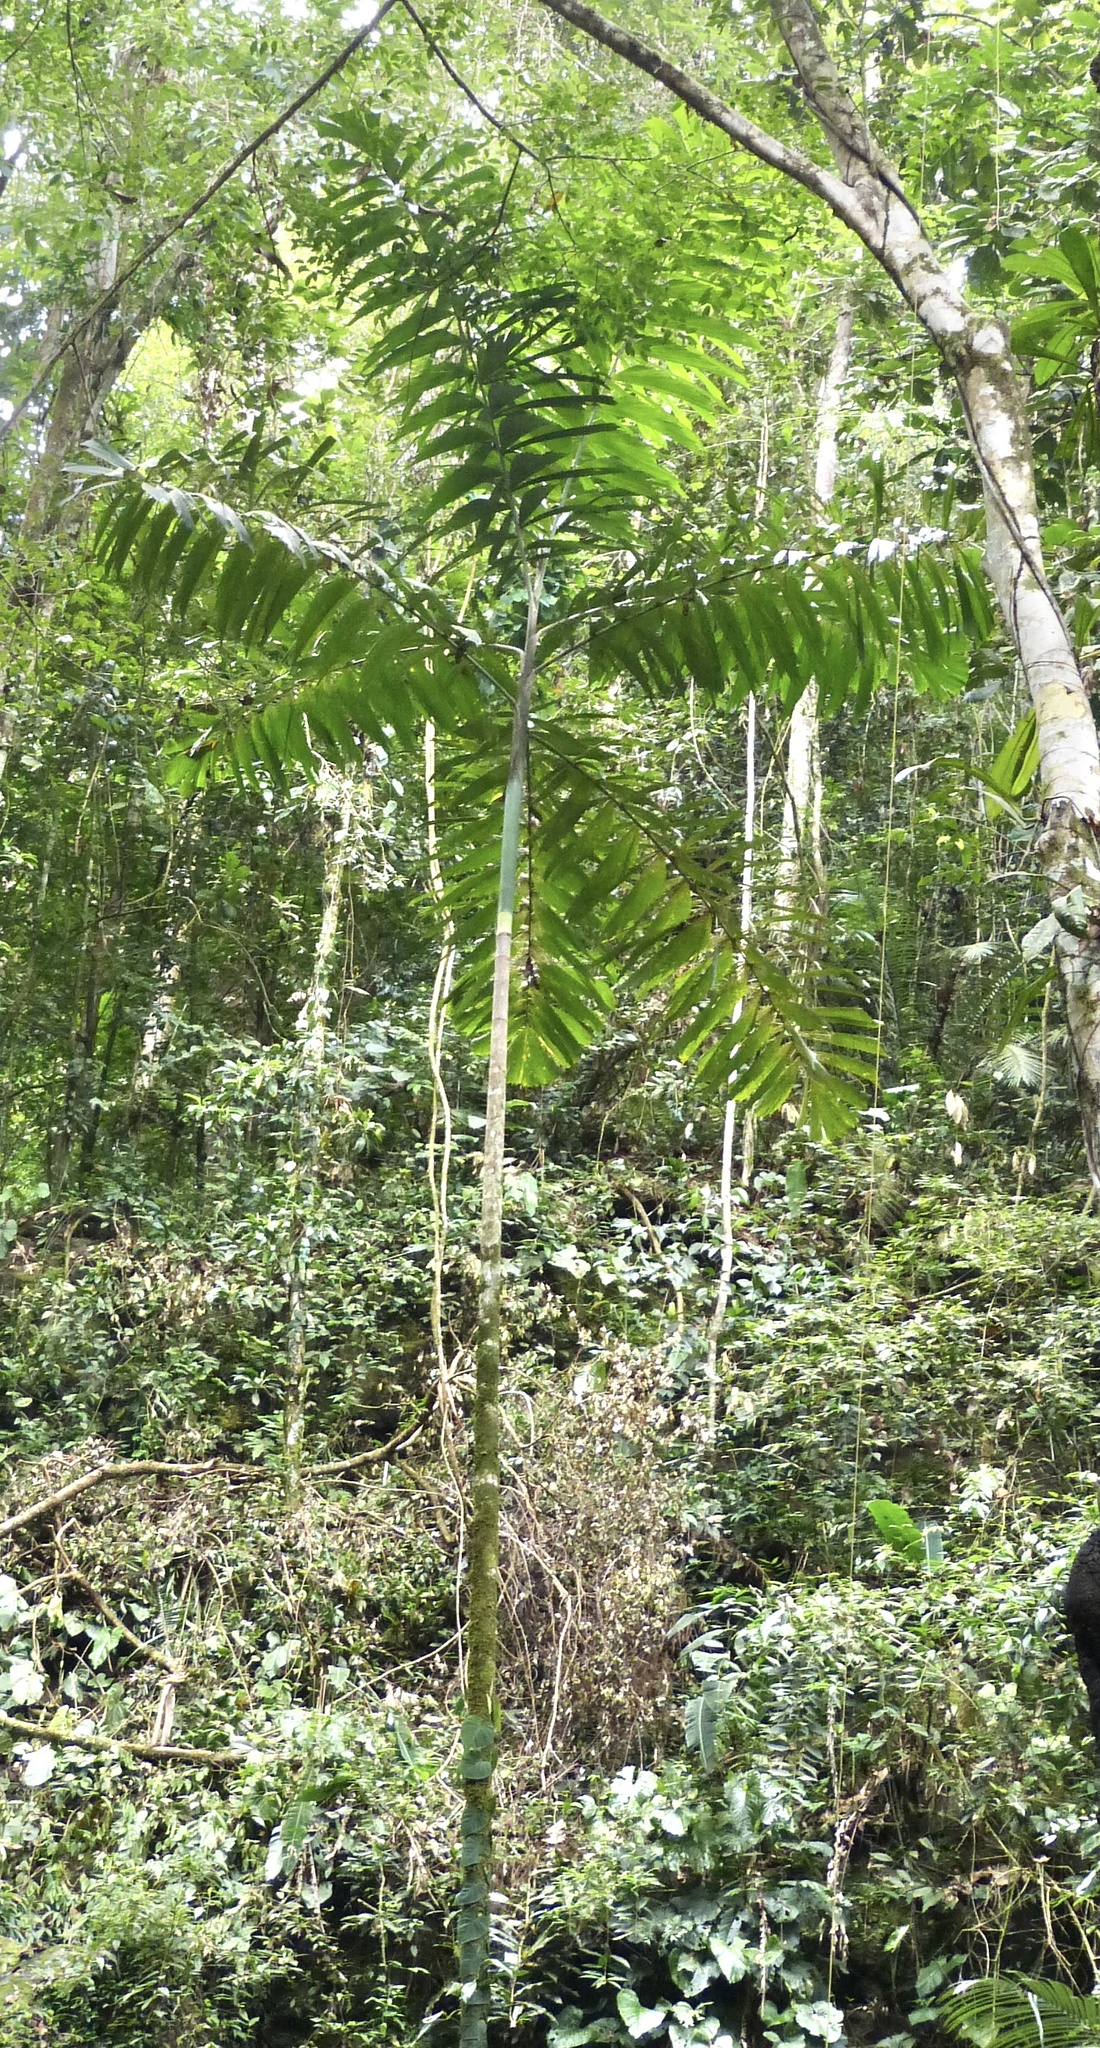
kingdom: Plantae
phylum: Tracheophyta
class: Liliopsida
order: Arecales
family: Arecaceae
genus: Socratea
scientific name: Socratea exorrhiza
